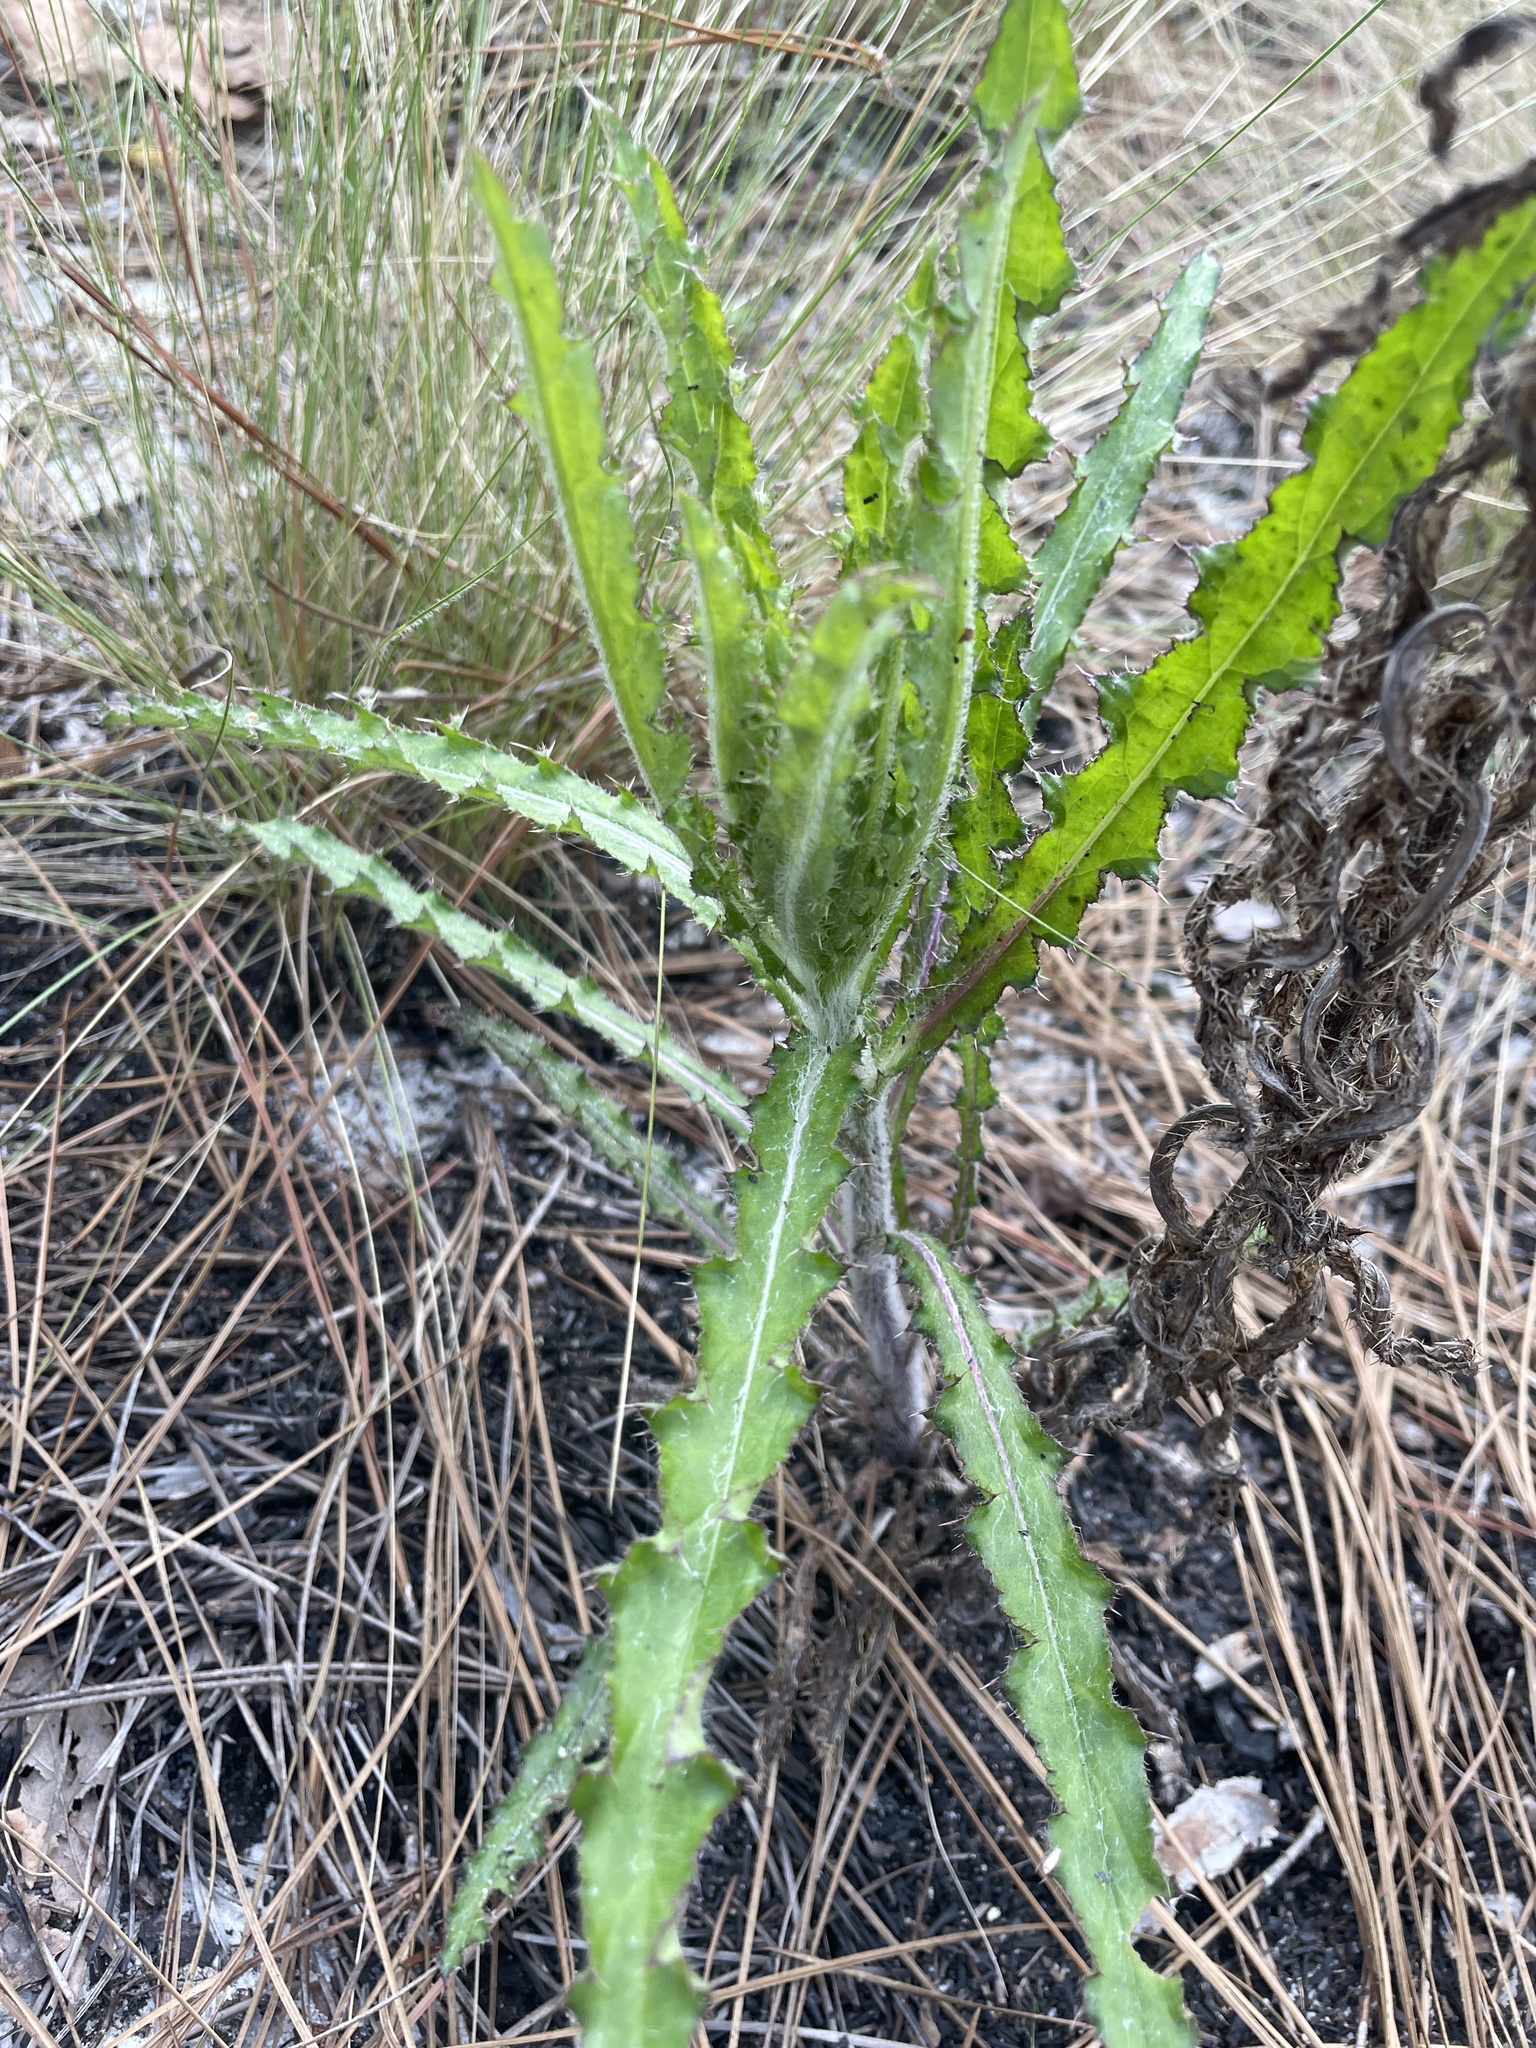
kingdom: Plantae
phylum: Tracheophyta
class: Magnoliopsida
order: Asterales
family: Asteraceae
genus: Cirsium
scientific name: Cirsium repandum
